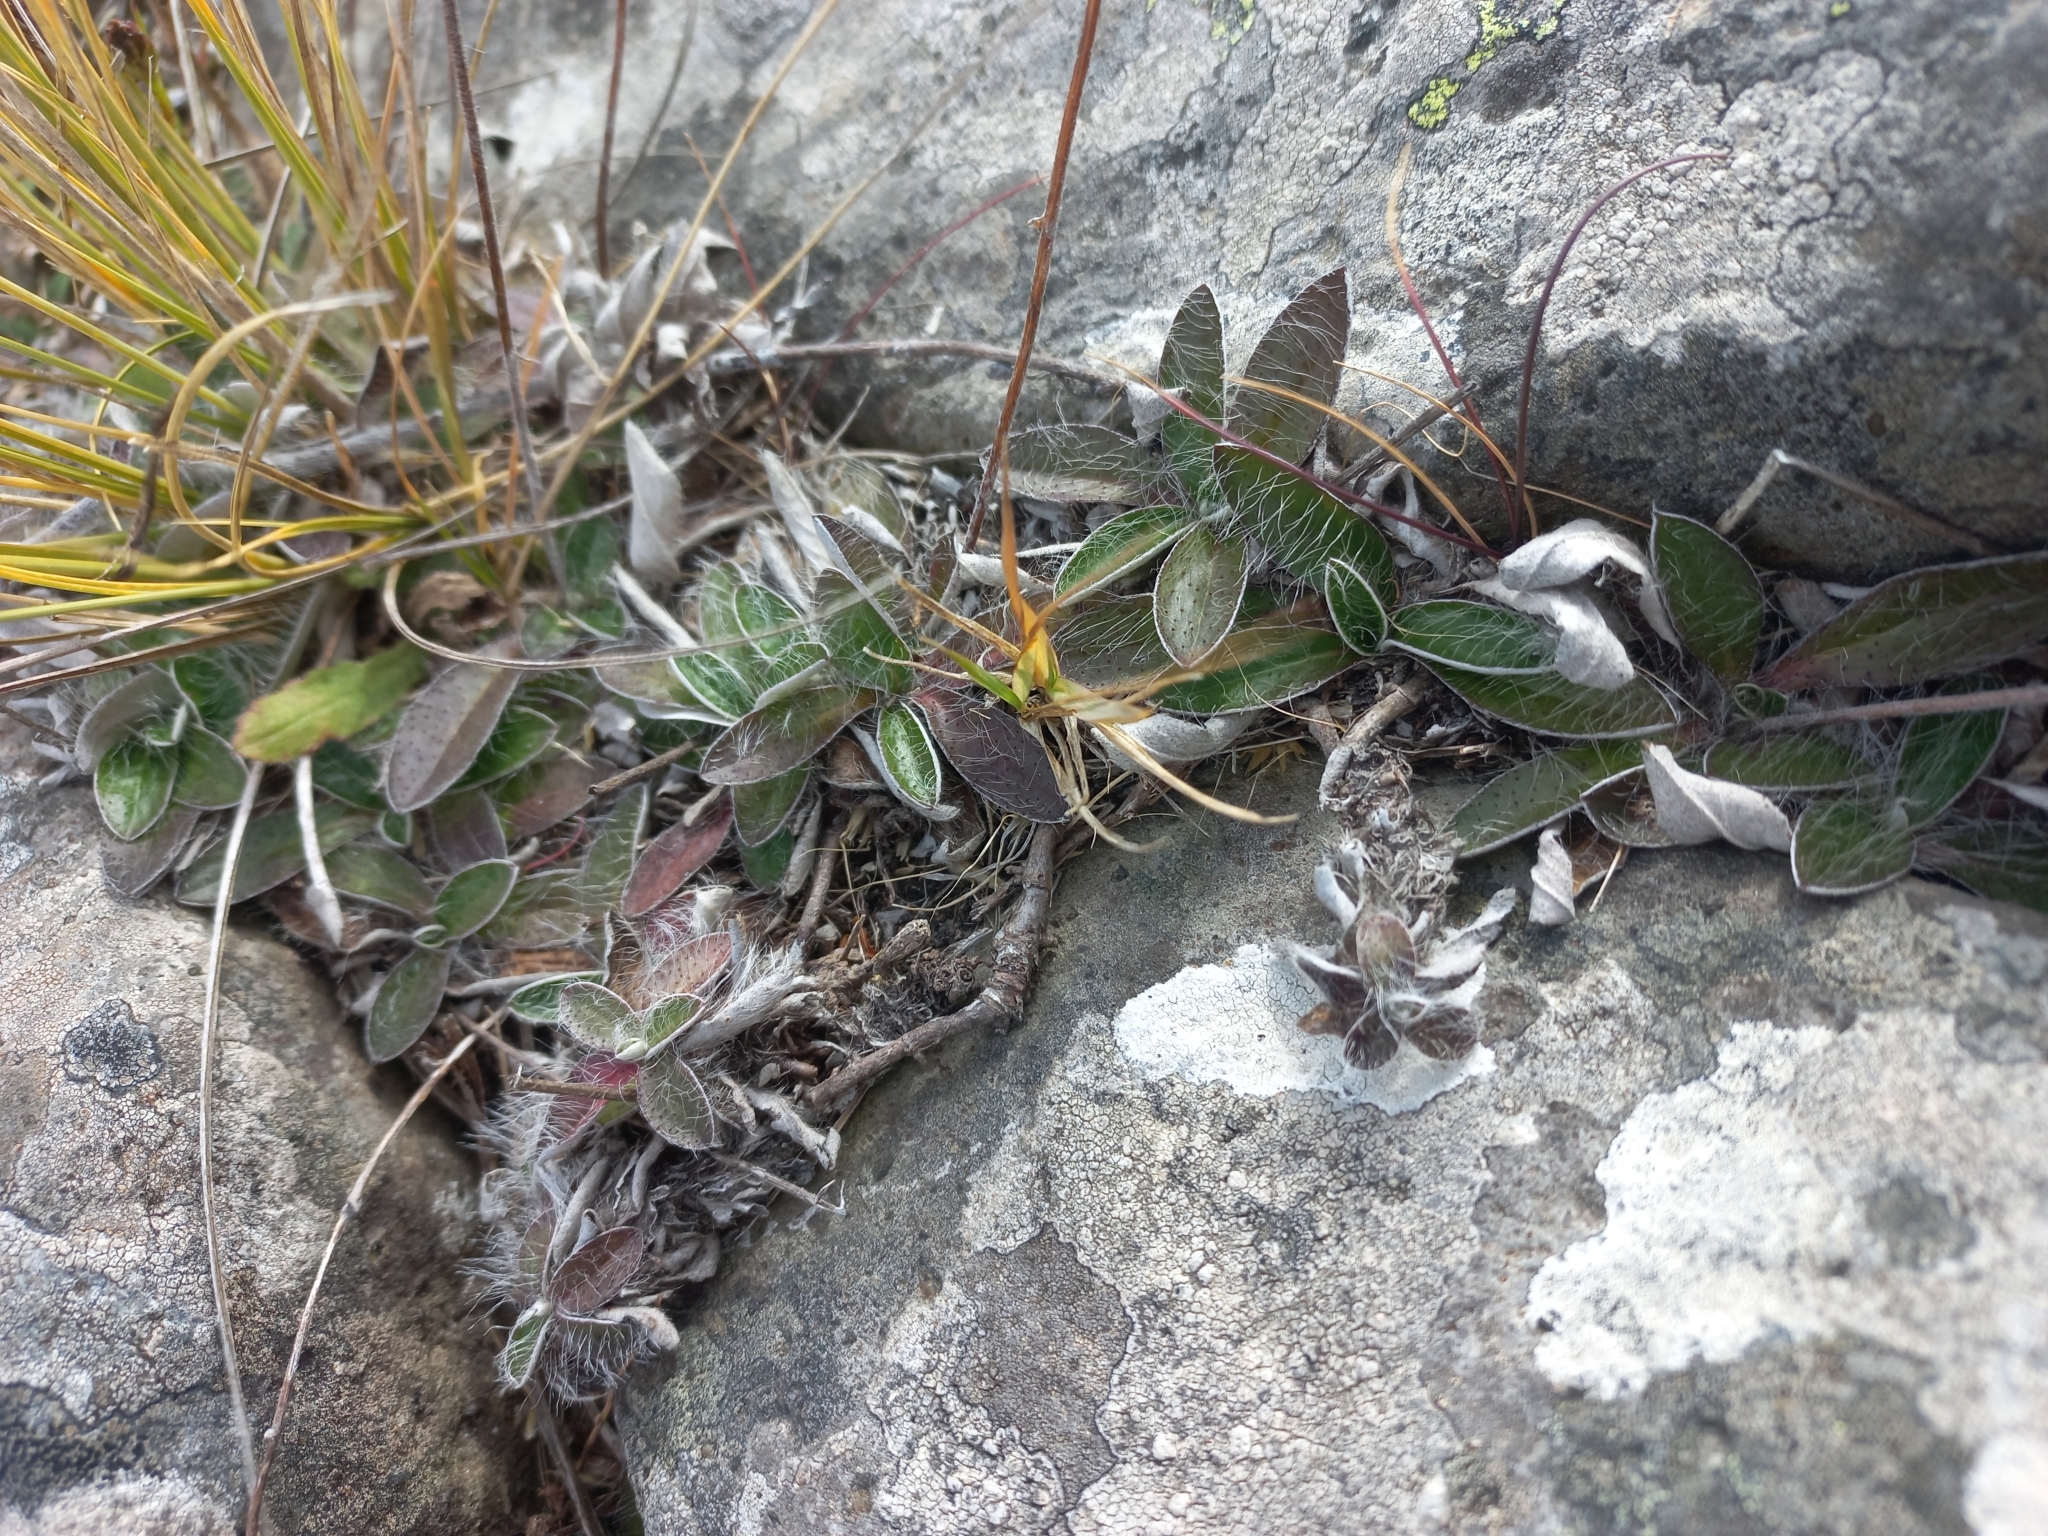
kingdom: Plantae
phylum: Tracheophyta
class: Magnoliopsida
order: Asterales
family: Asteraceae
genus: Pilosella
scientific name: Pilosella officinarum
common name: Mouse-ear hawkweed
